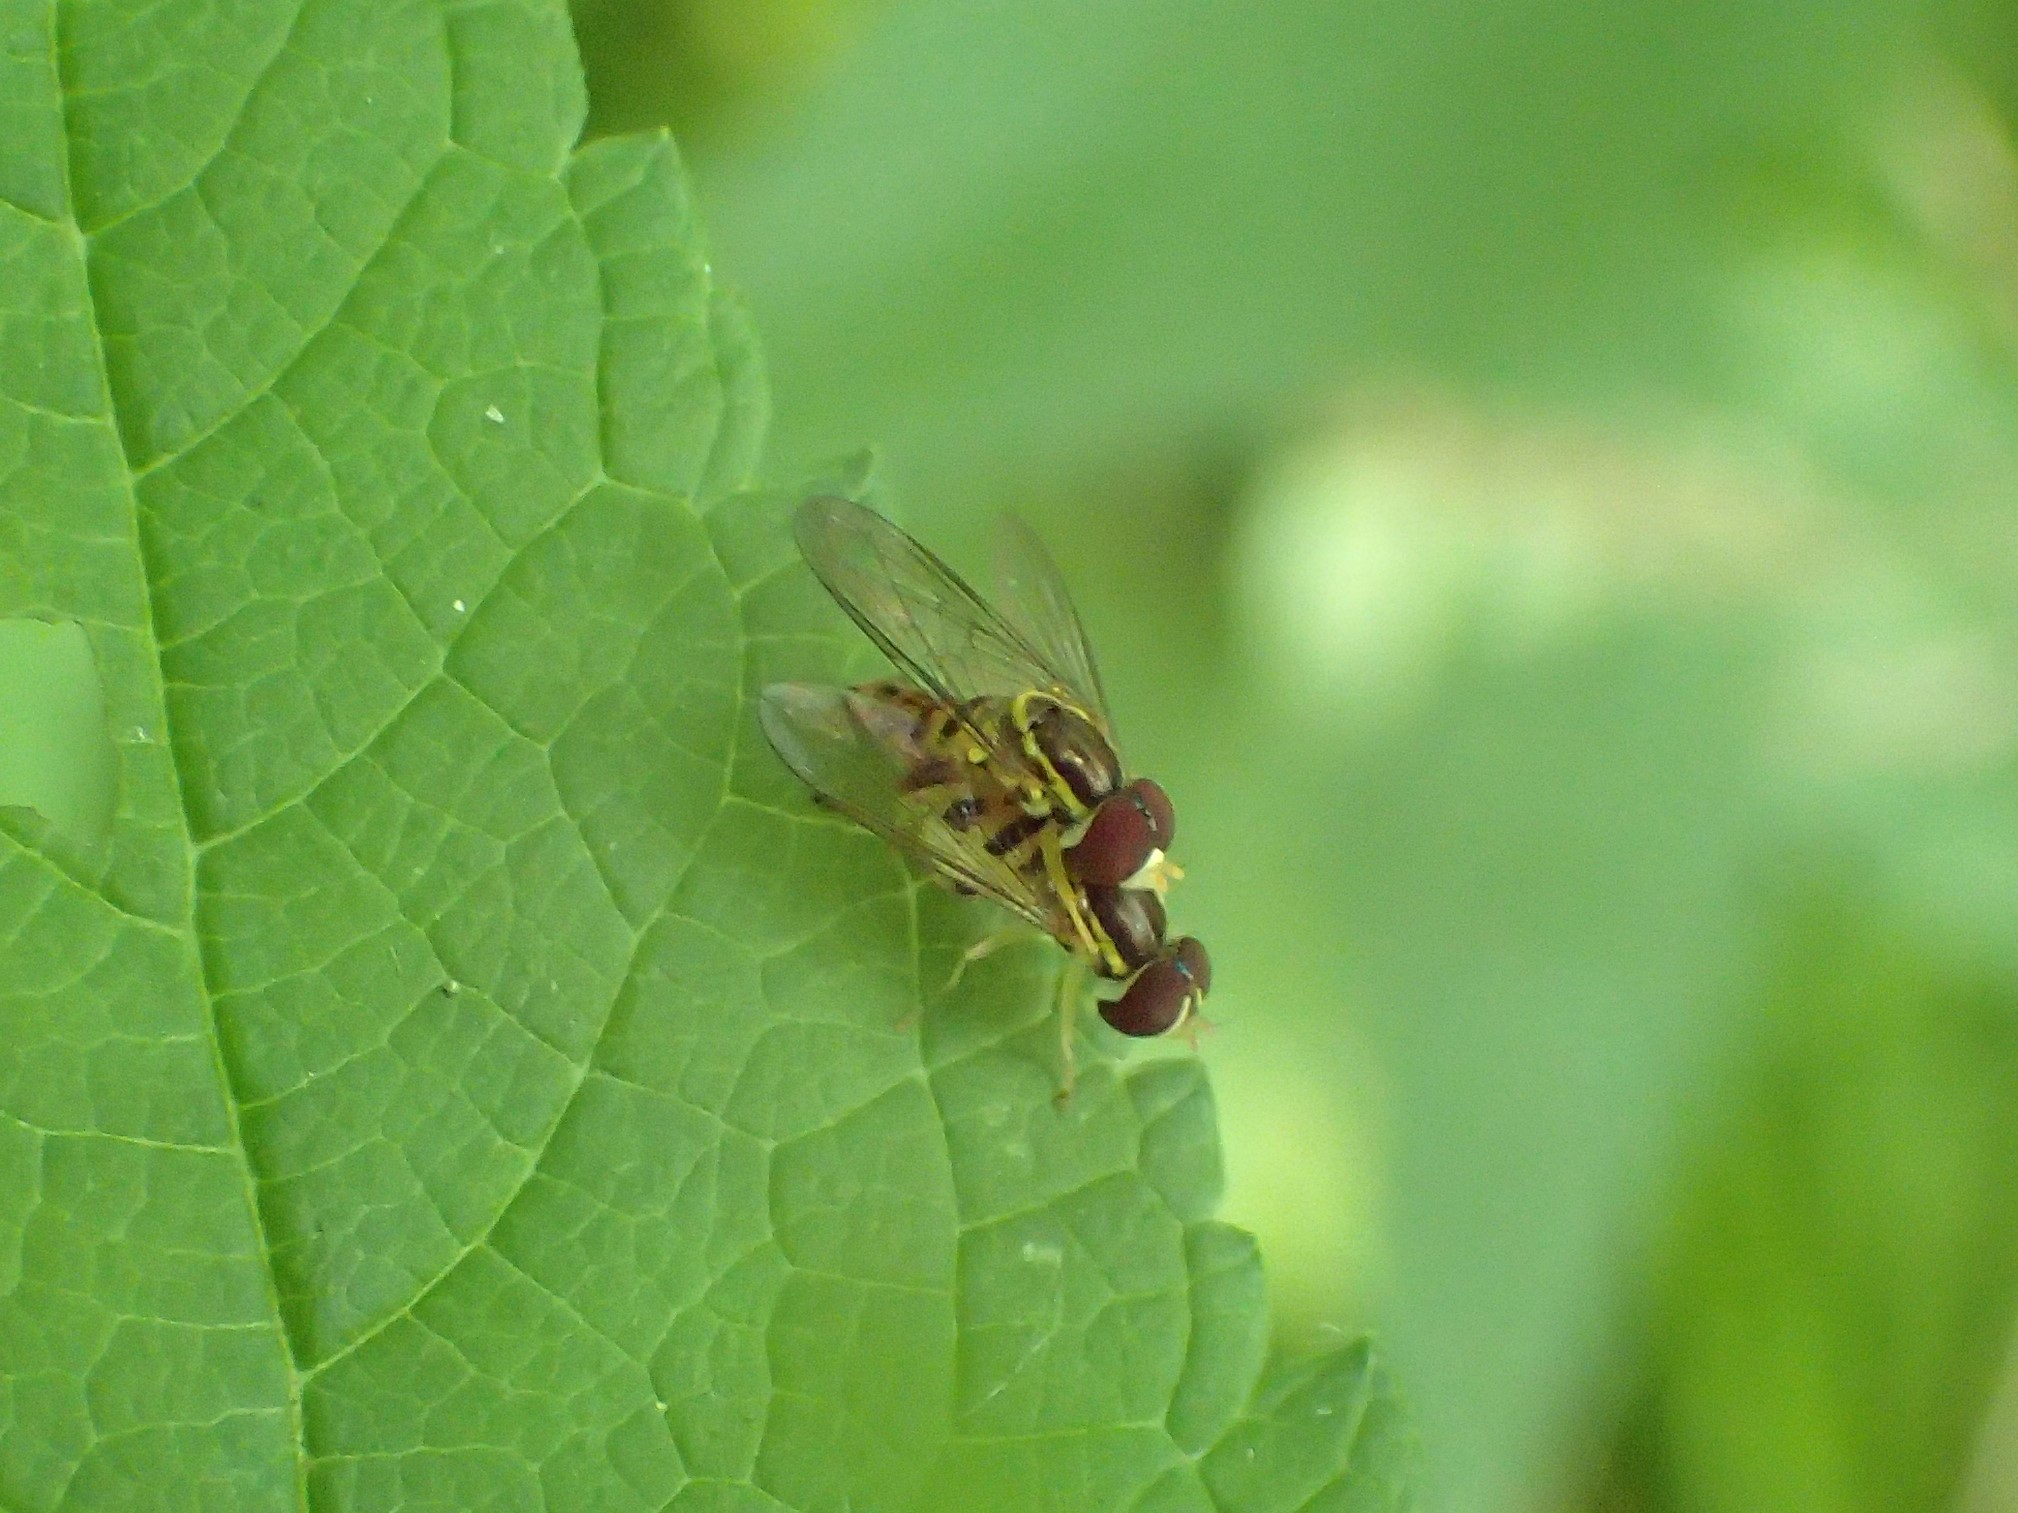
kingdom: Animalia
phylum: Arthropoda
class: Insecta
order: Diptera
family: Syrphidae
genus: Toxomerus
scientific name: Toxomerus geminatus
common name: Eastern calligrapher
